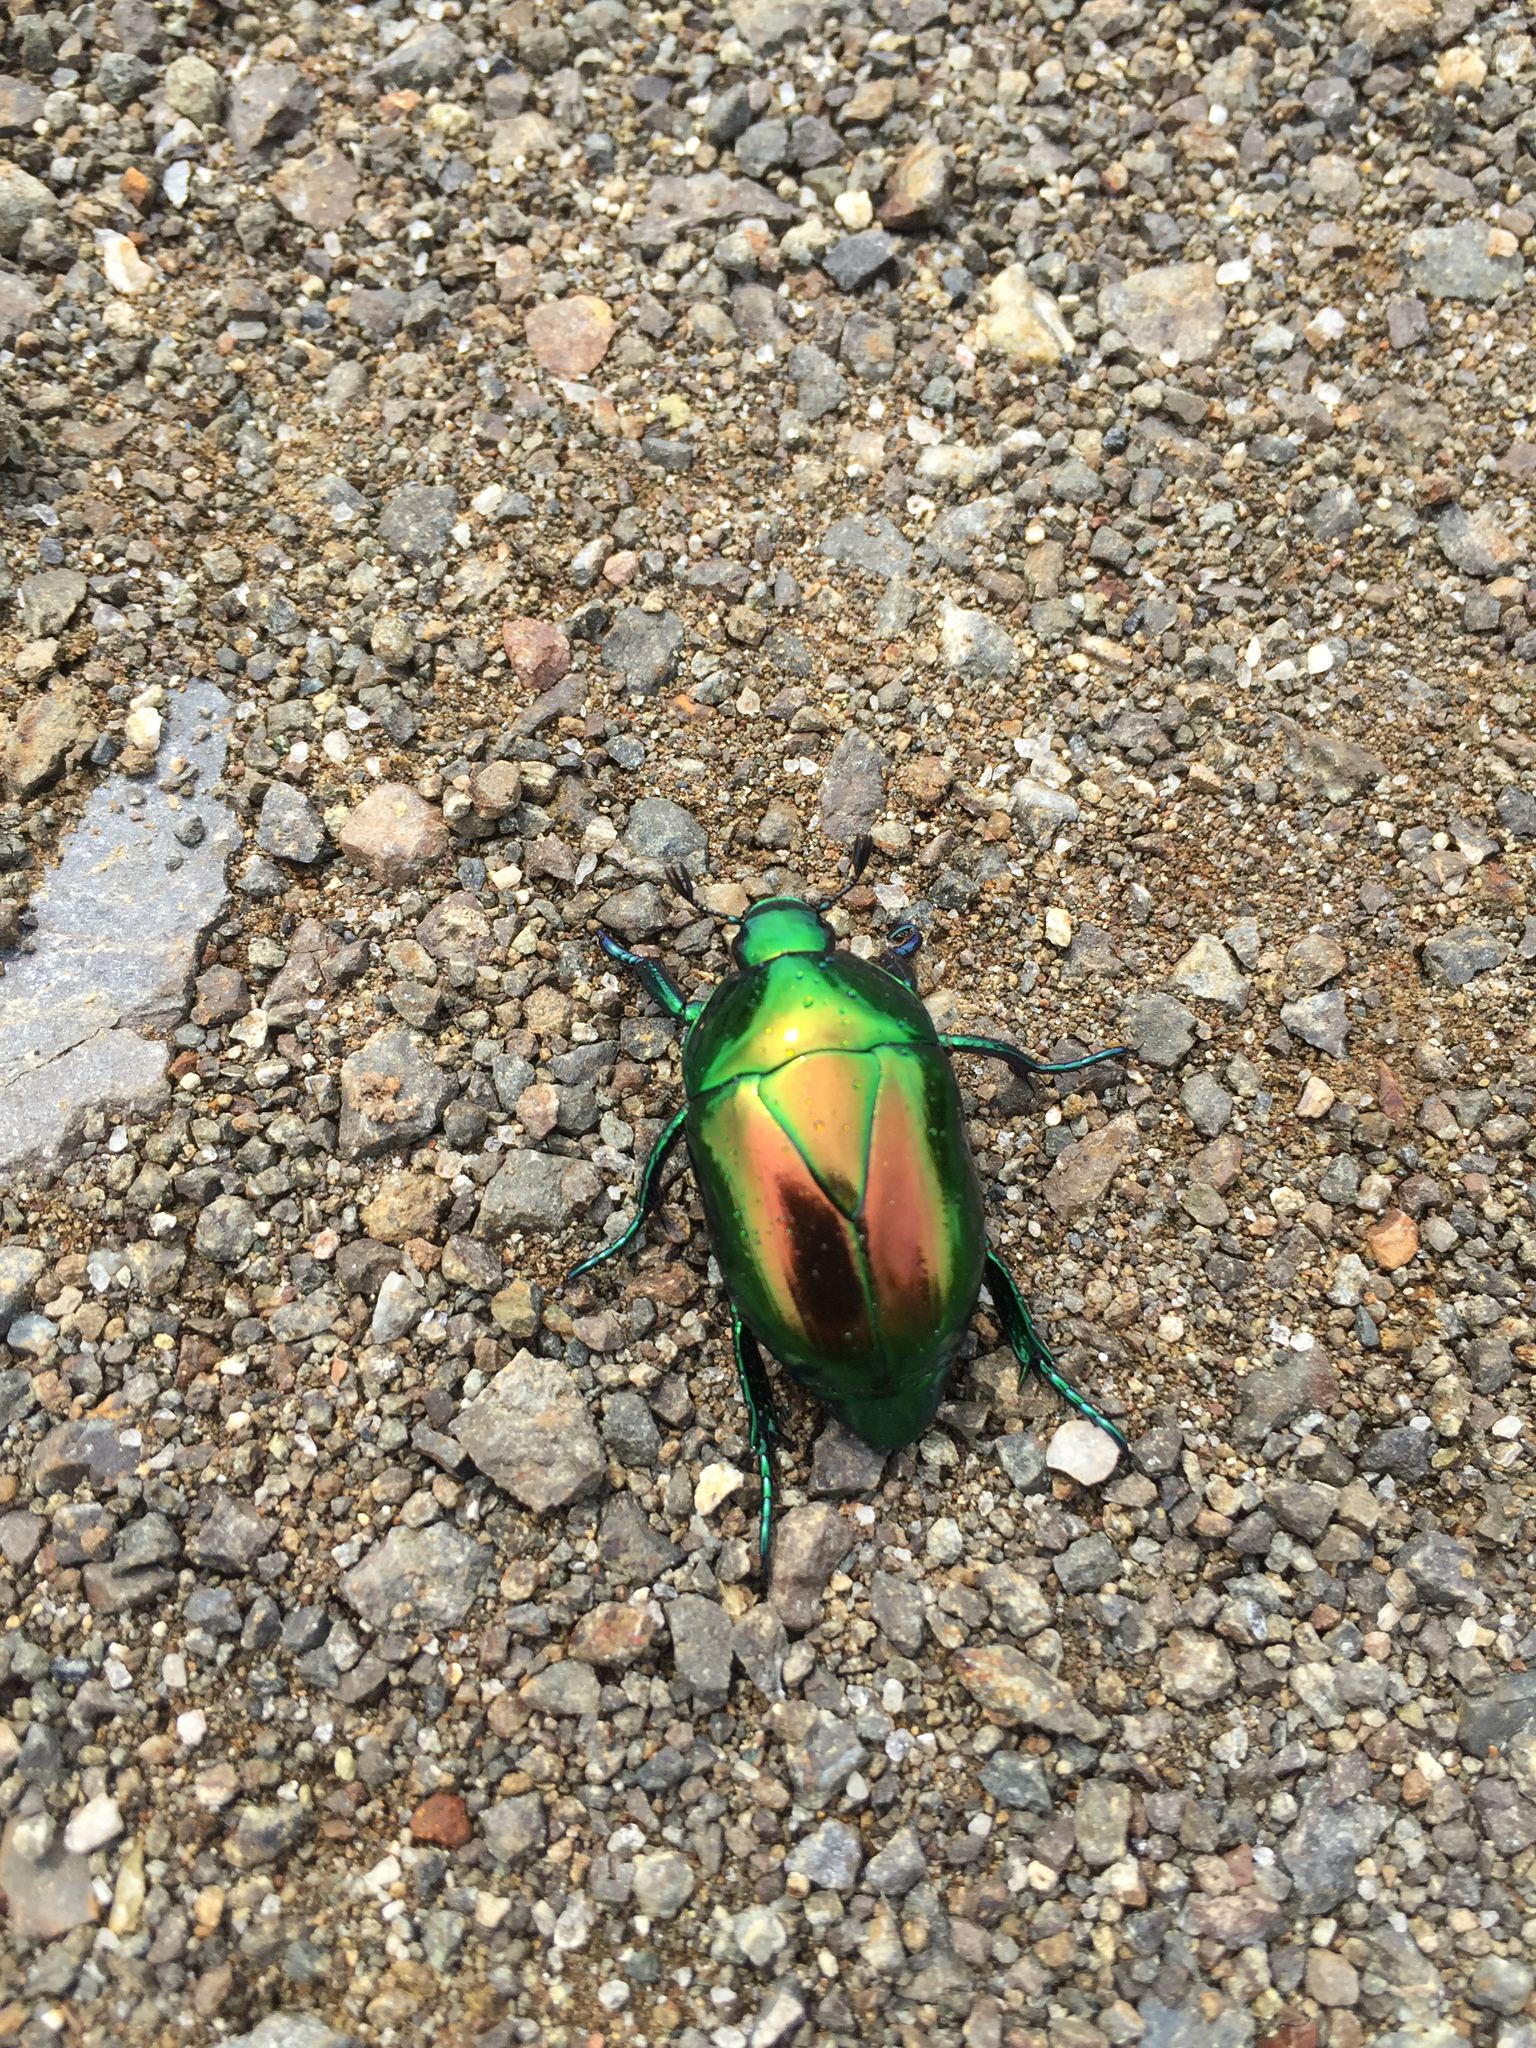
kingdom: Animalia
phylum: Arthropoda
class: Insecta
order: Coleoptera
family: Scarabaeidae
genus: Macraspis
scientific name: Macraspis chrysis
